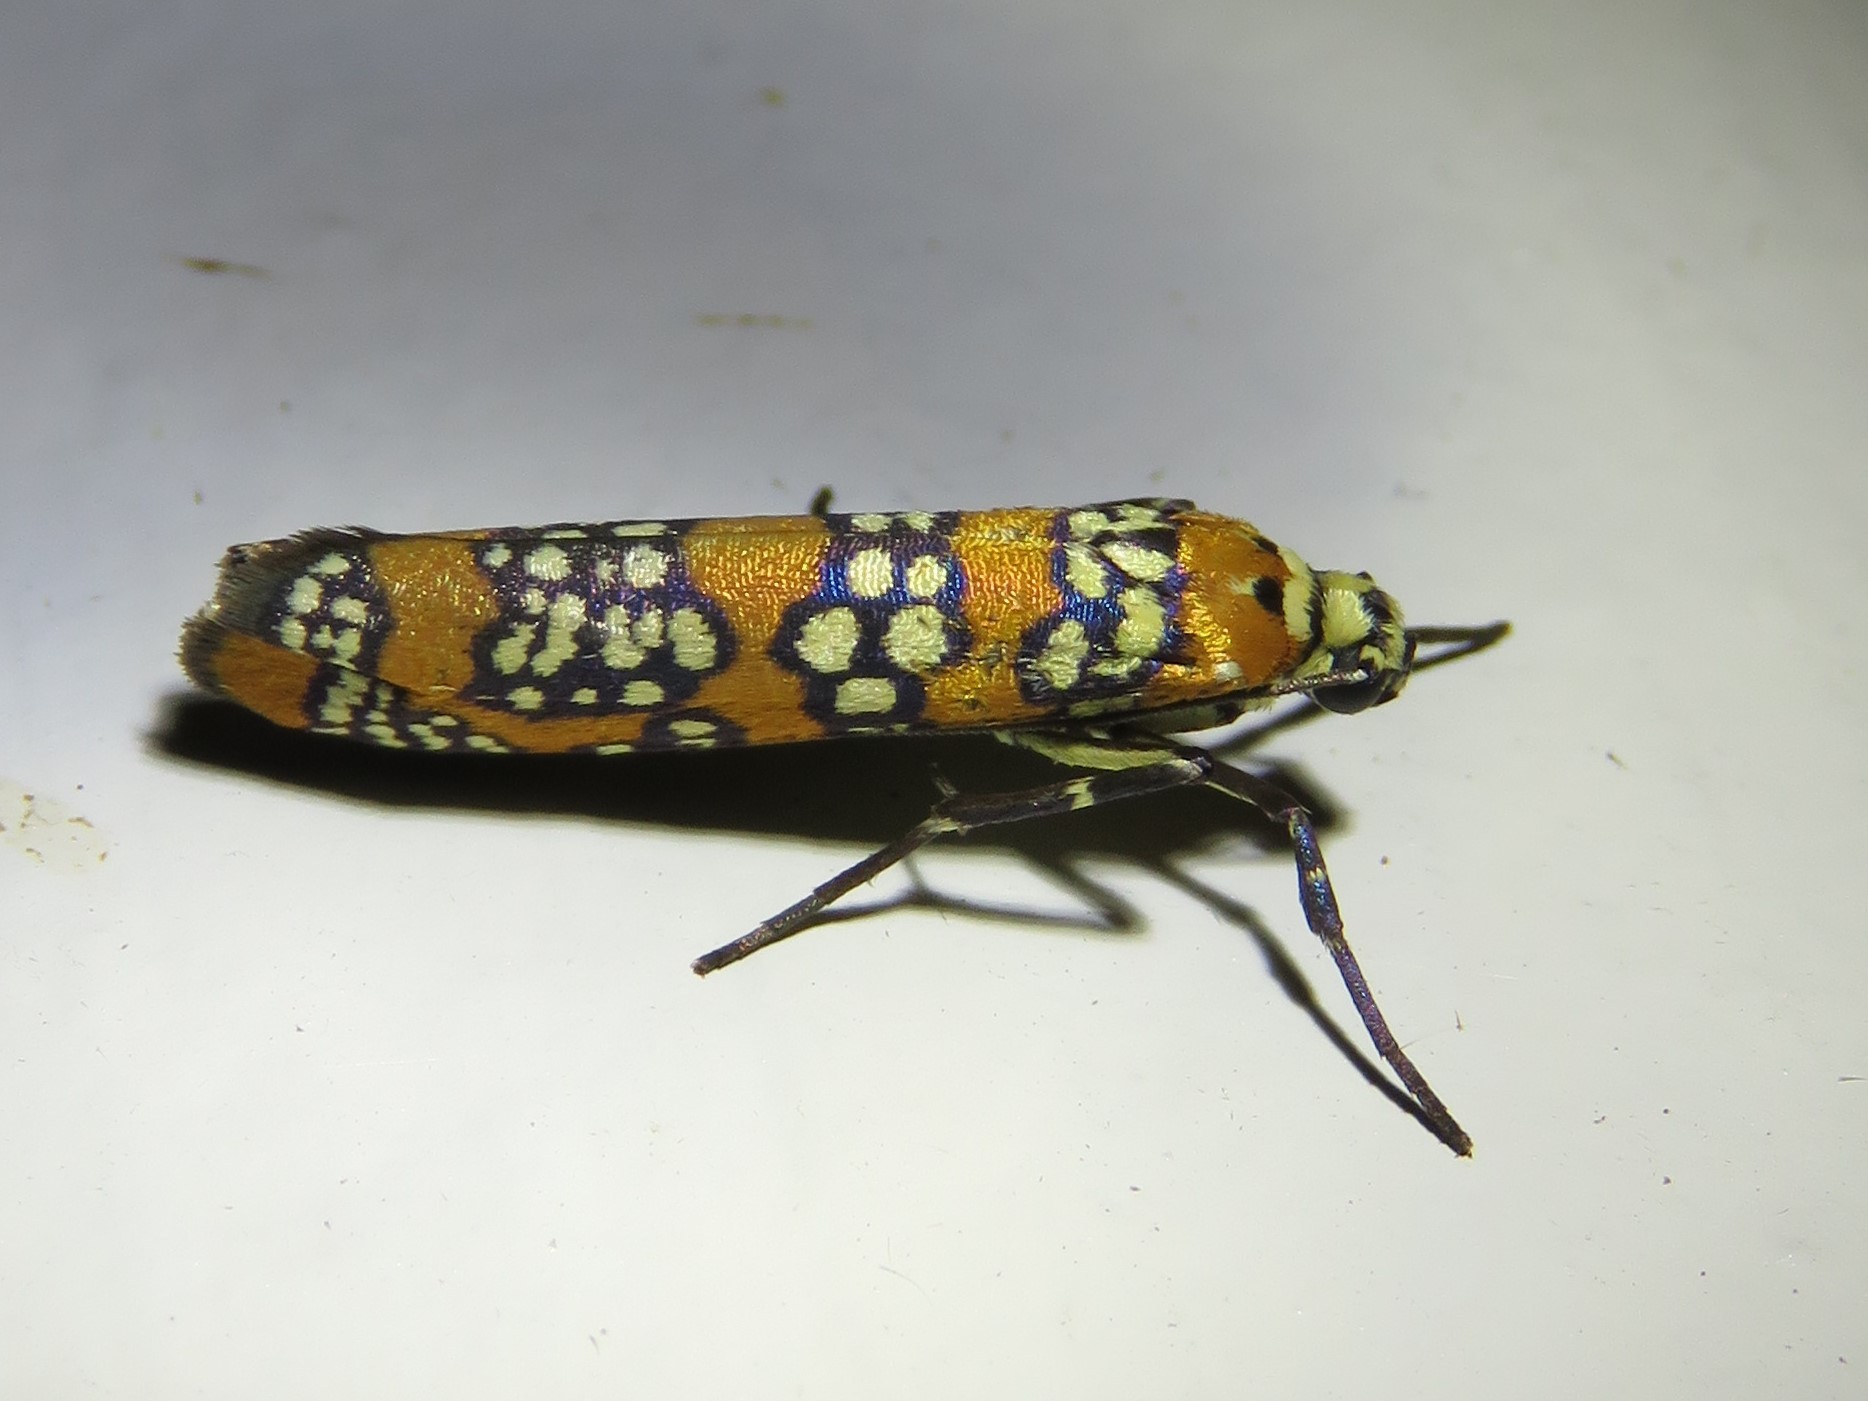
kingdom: Animalia
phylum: Arthropoda
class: Insecta
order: Lepidoptera
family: Attevidae
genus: Atteva
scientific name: Atteva punctella
